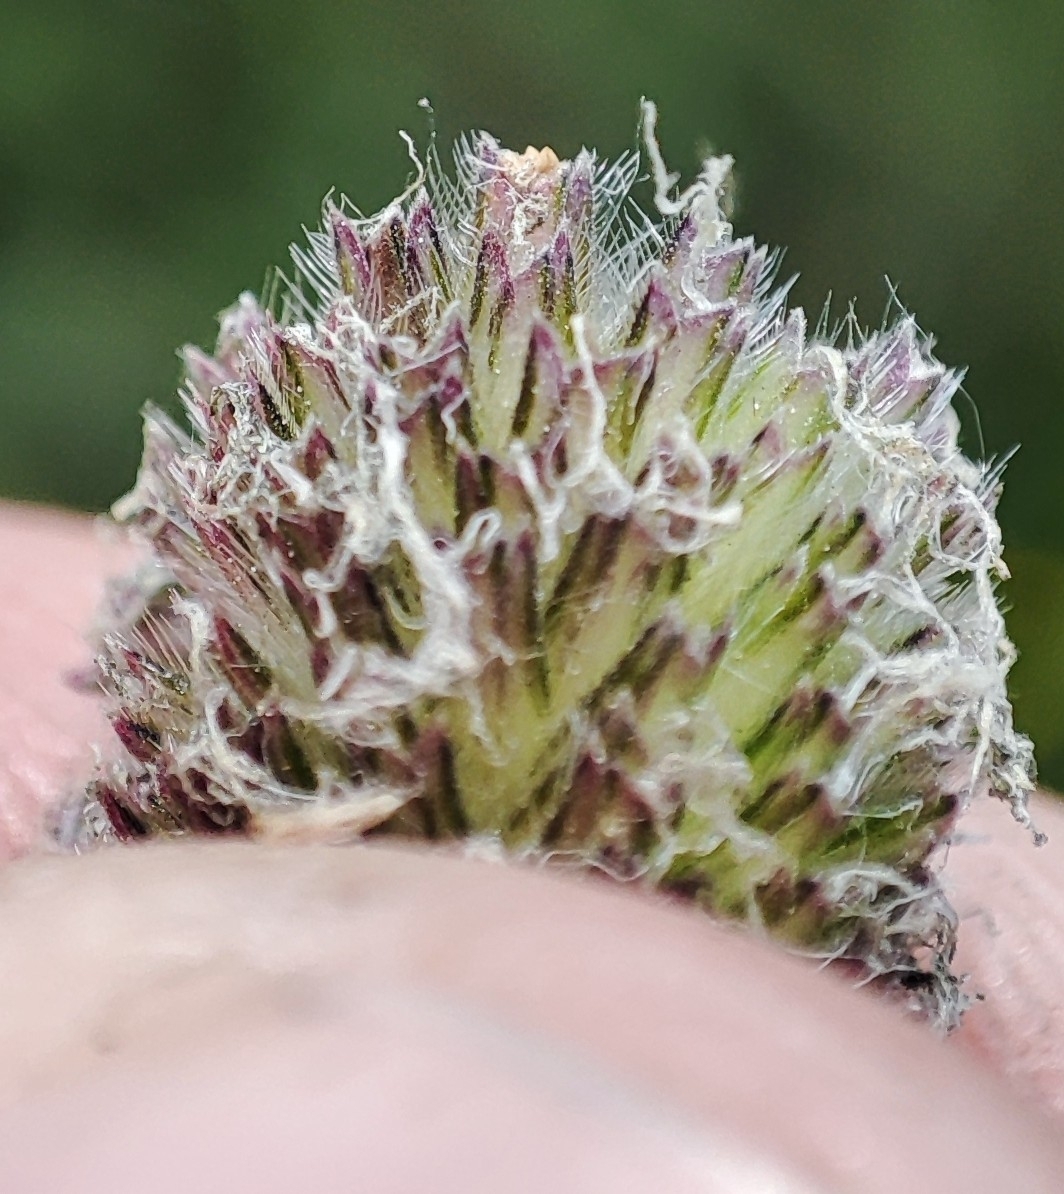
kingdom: Plantae
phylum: Tracheophyta
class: Liliopsida
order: Poales
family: Poaceae
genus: Phleum
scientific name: Phleum pratense
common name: Timothy grass
